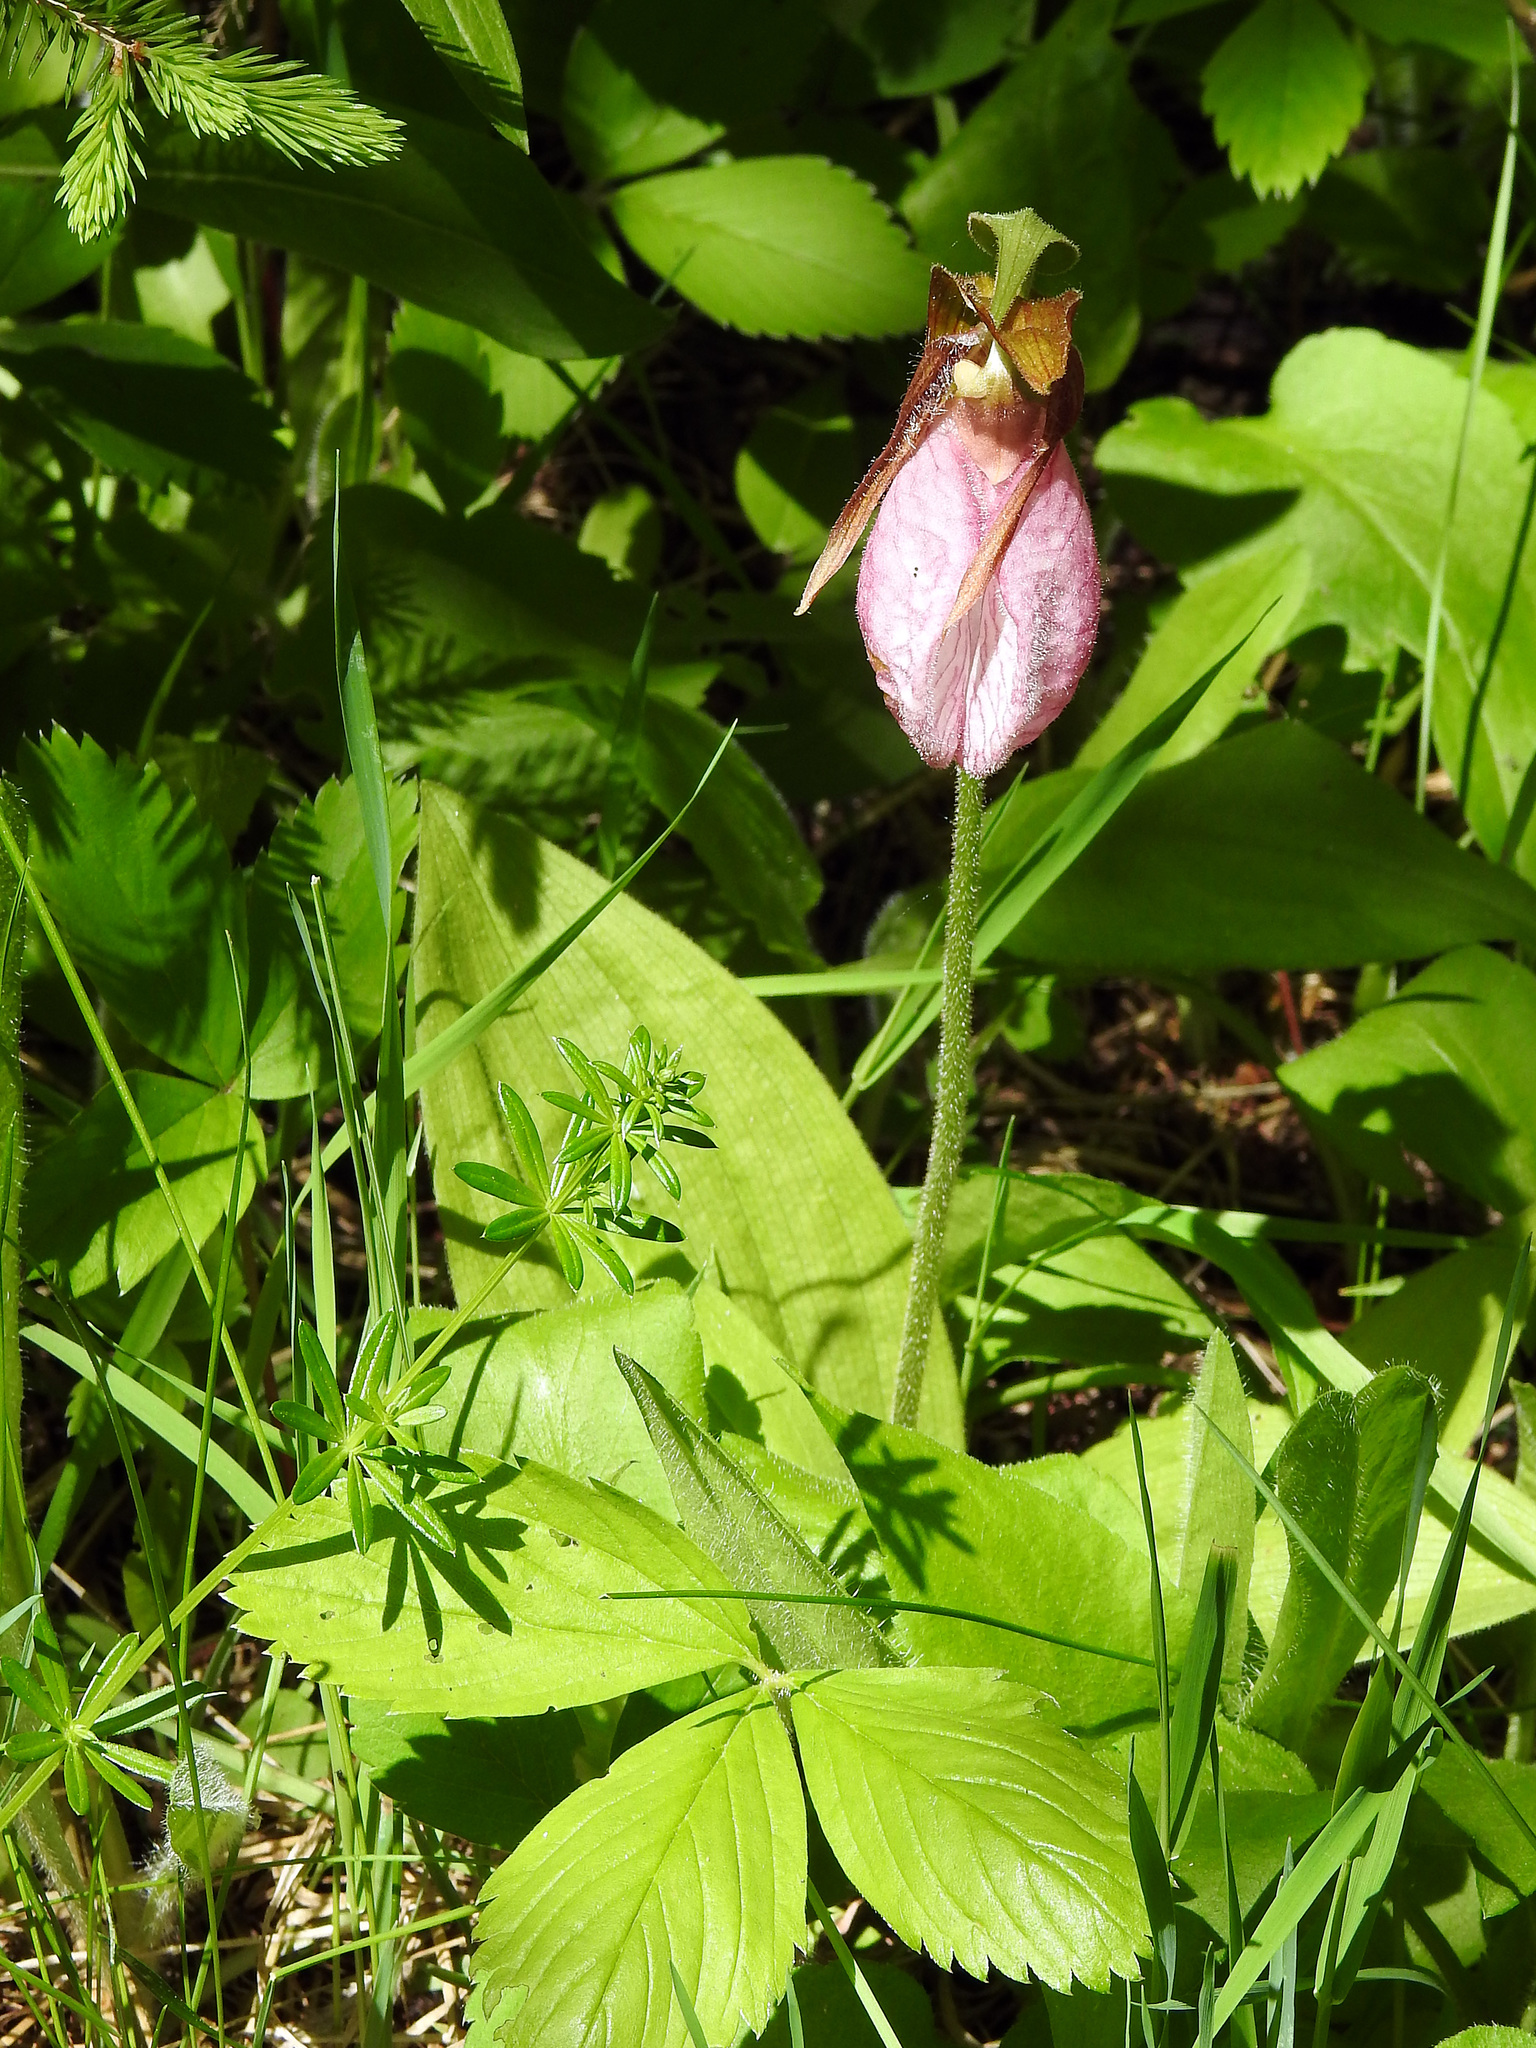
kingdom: Plantae
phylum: Tracheophyta
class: Liliopsida
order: Asparagales
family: Orchidaceae
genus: Cypripedium
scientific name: Cypripedium acaule
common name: Pink lady's-slipper
